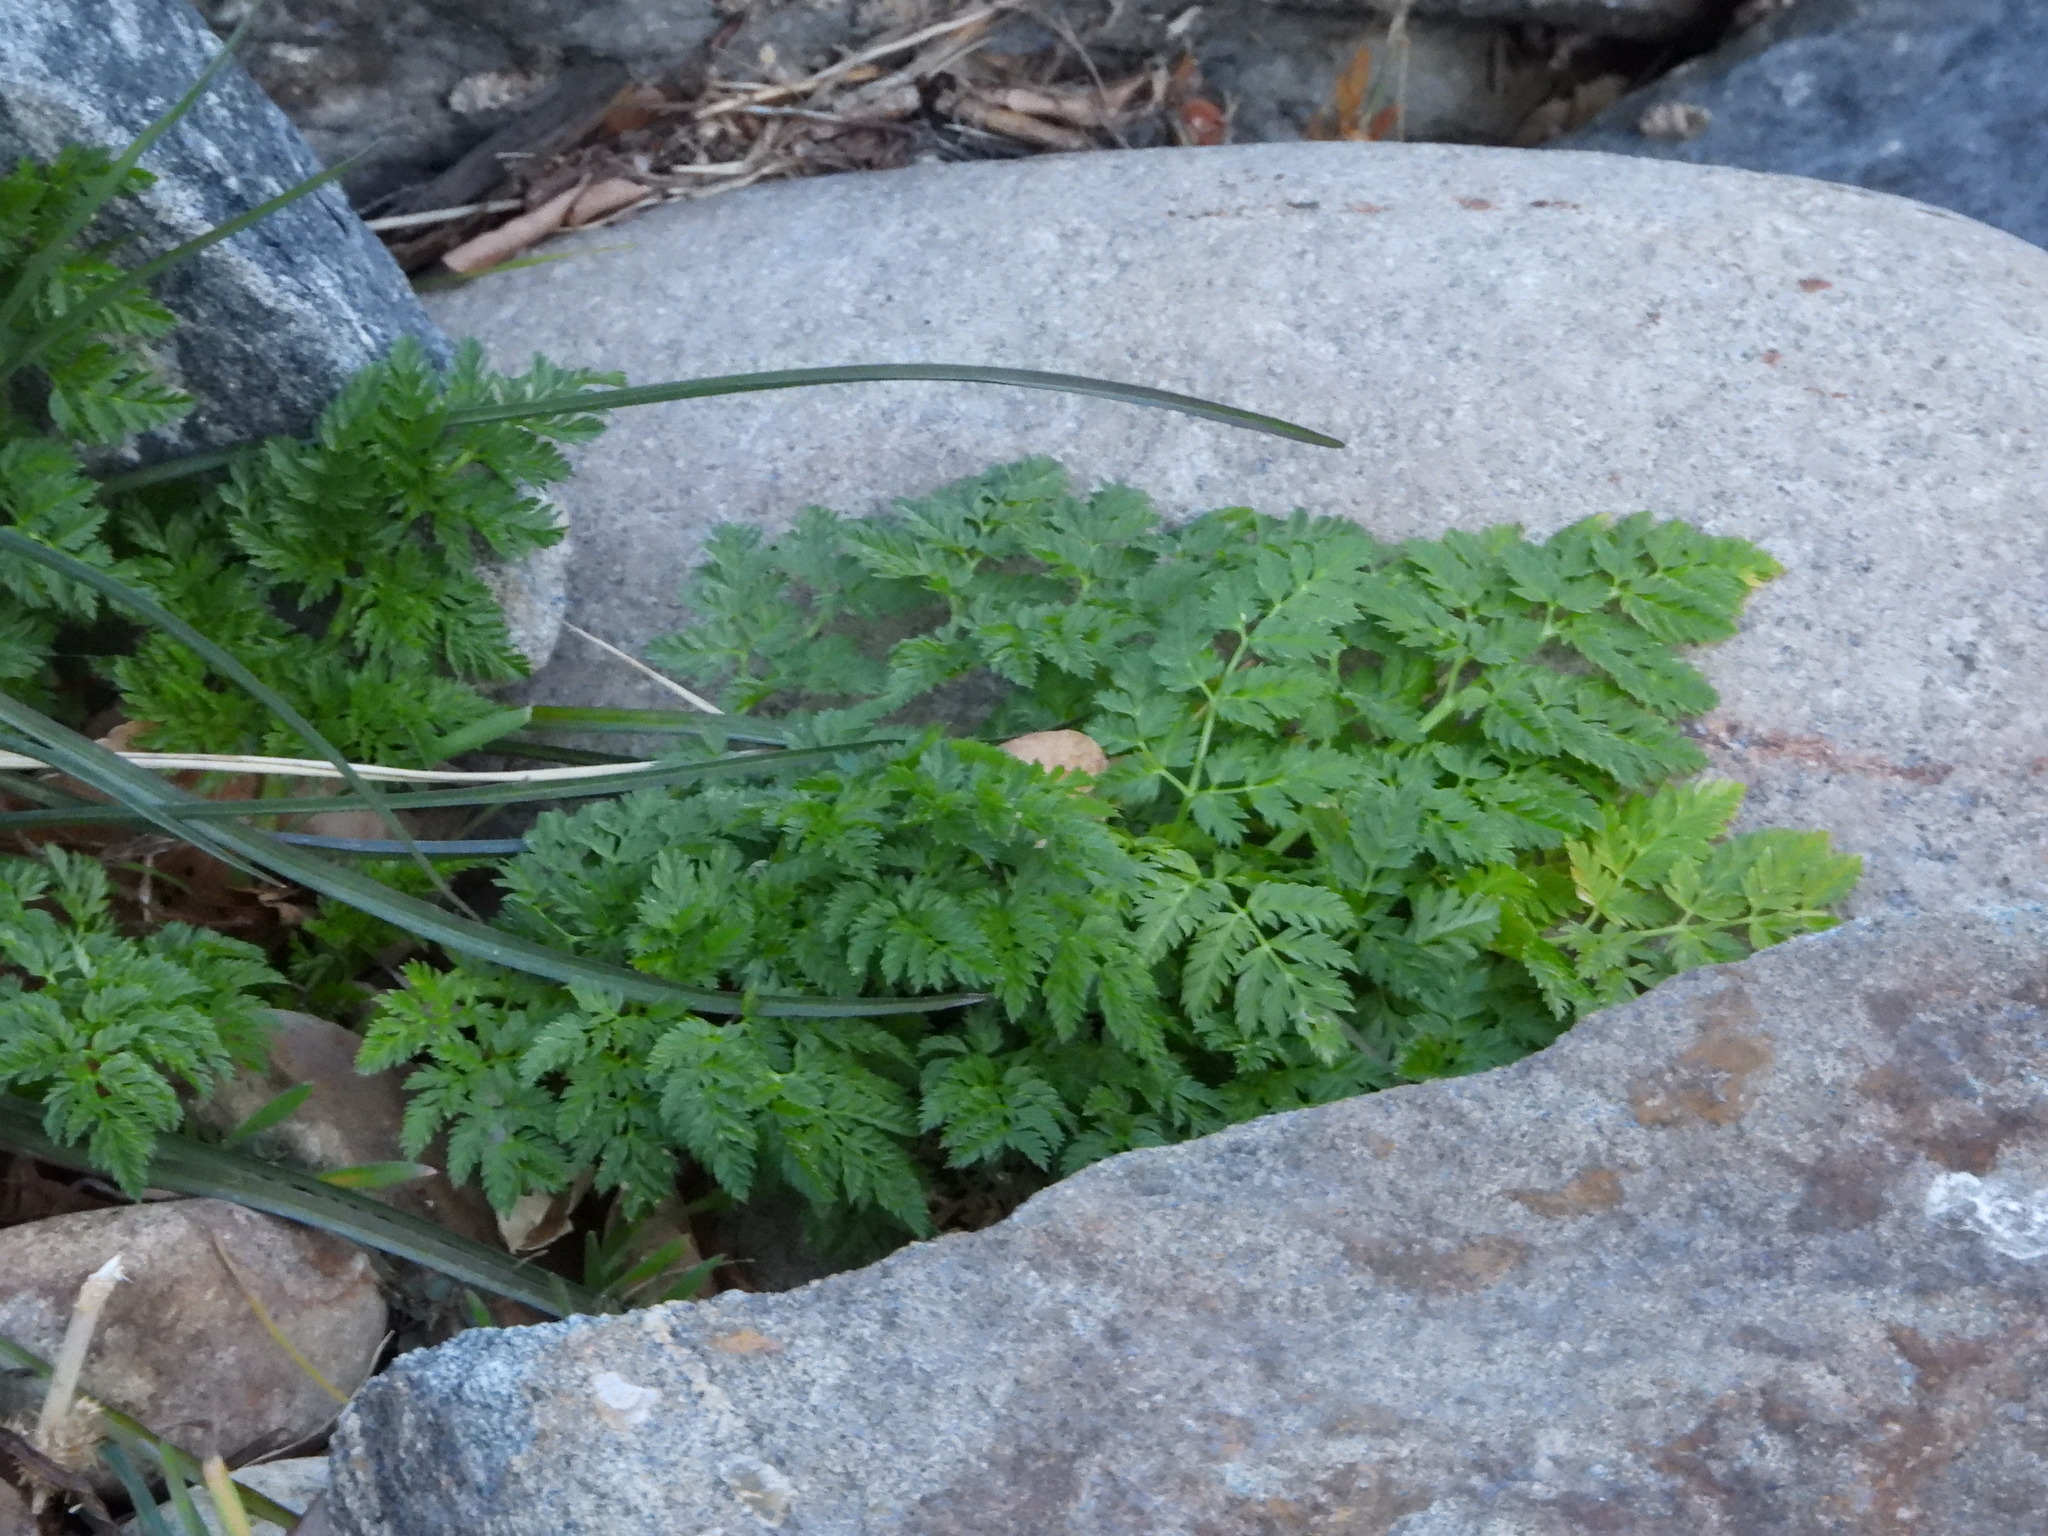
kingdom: Plantae
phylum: Tracheophyta
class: Magnoliopsida
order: Apiales
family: Apiaceae
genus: Conium
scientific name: Conium maculatum
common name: Hemlock
